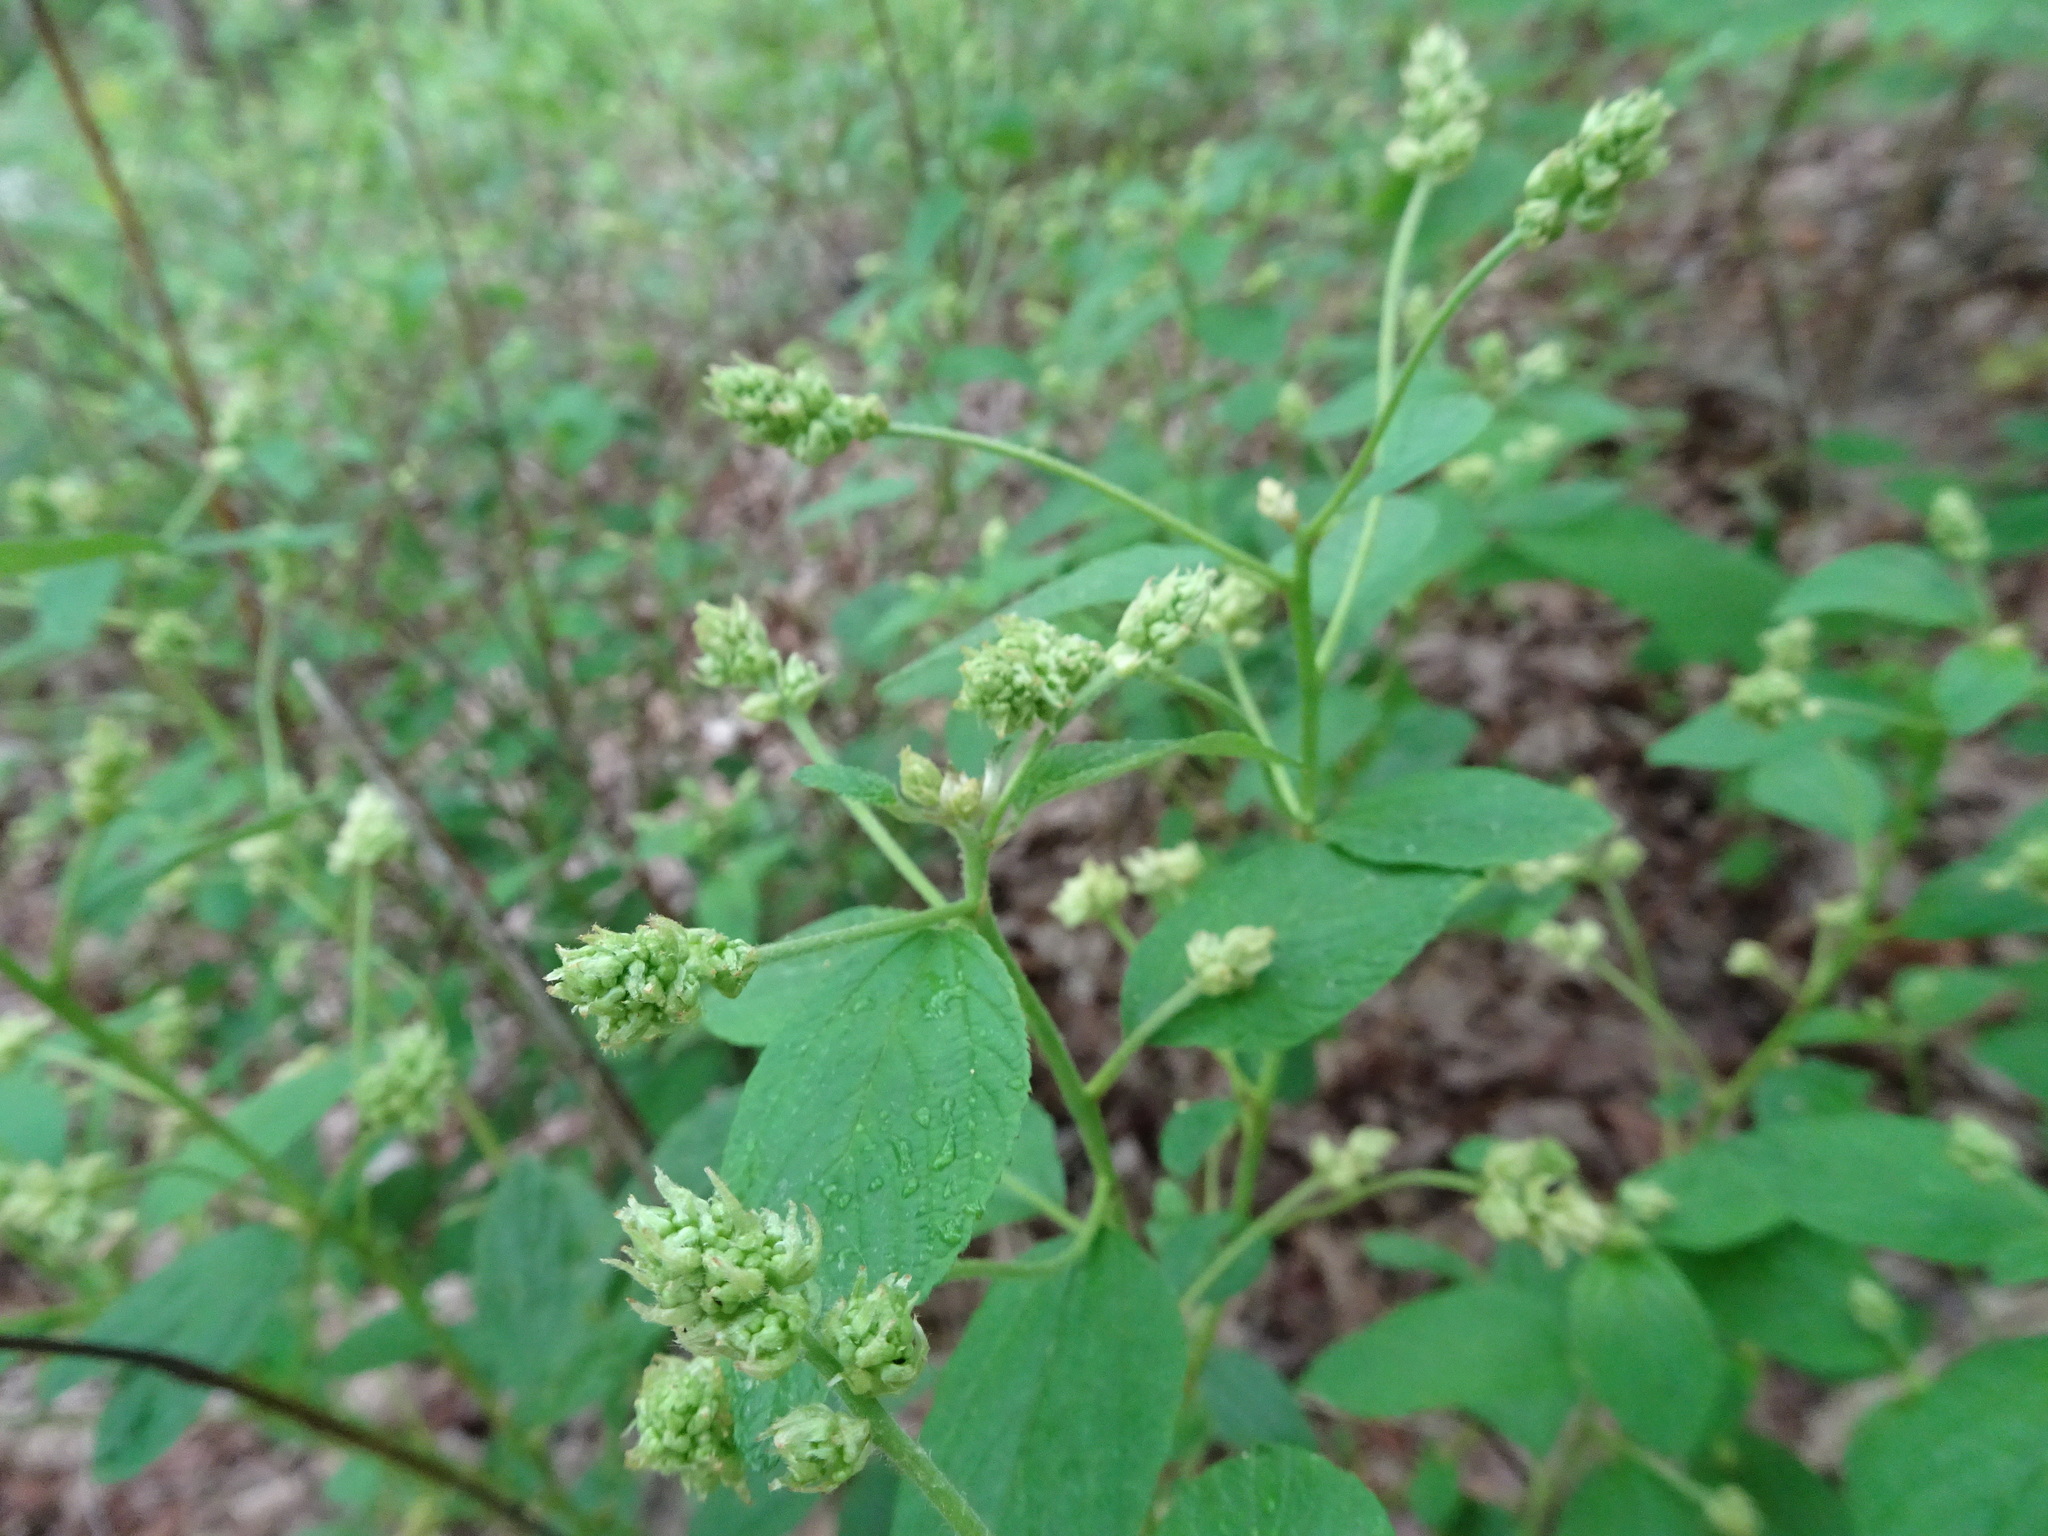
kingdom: Plantae
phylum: Tracheophyta
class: Magnoliopsida
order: Rosales
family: Rhamnaceae
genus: Ceanothus
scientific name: Ceanothus americanus
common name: Redroot
